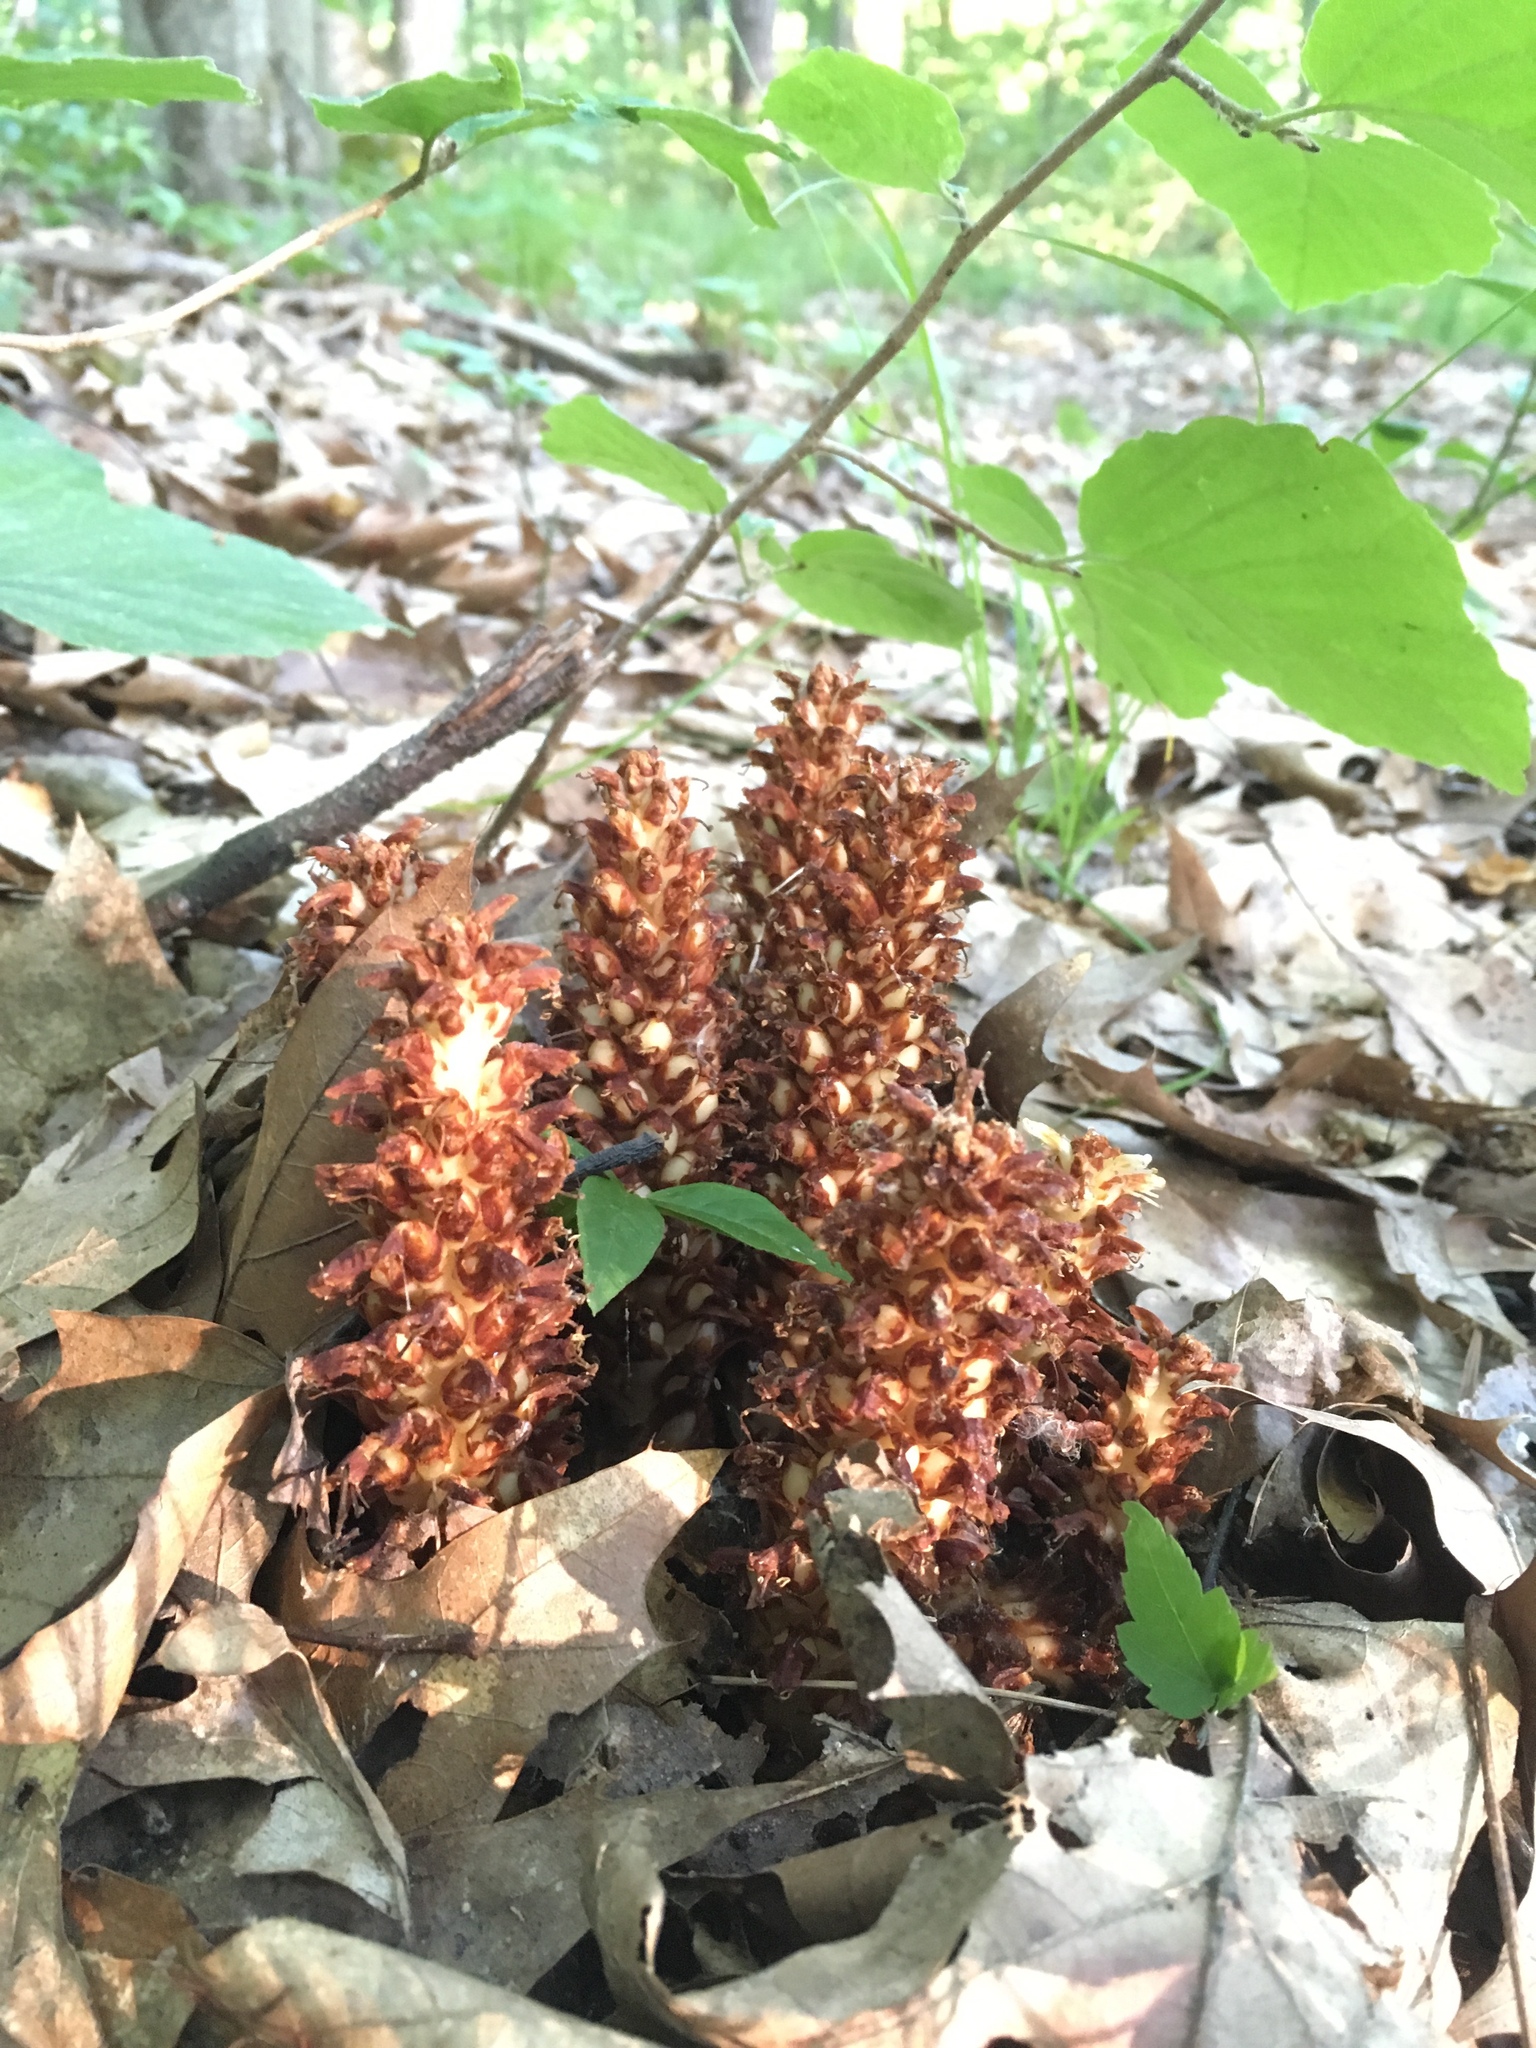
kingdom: Plantae
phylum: Tracheophyta
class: Magnoliopsida
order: Lamiales
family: Orobanchaceae
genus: Conopholis
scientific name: Conopholis americana
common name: American cancer-root
